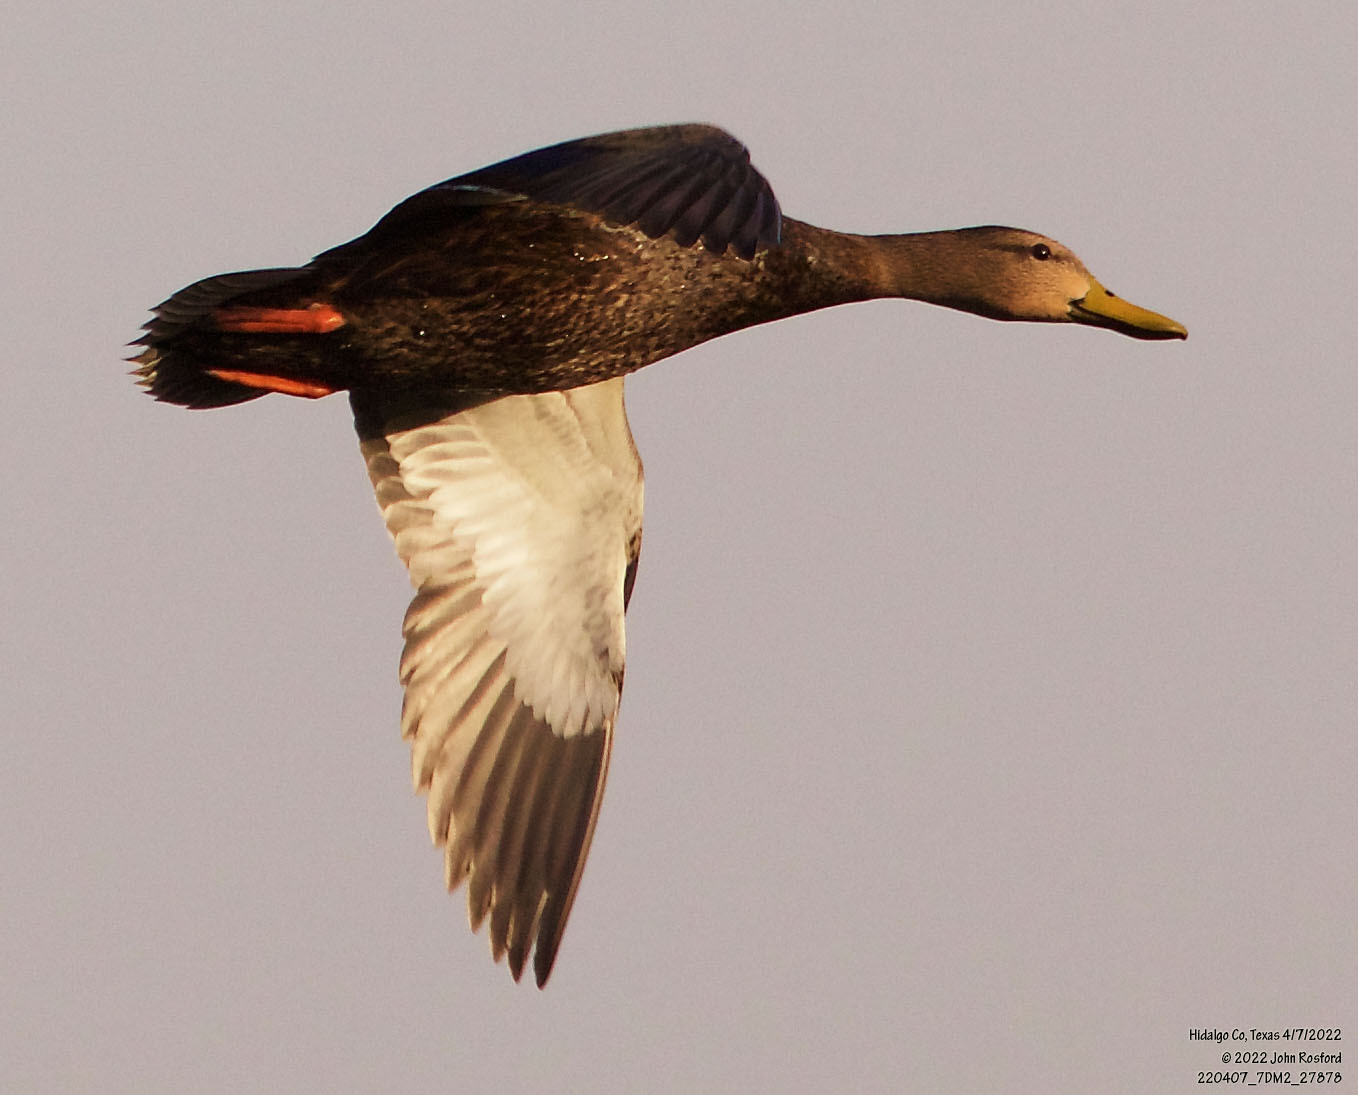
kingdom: Animalia
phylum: Chordata
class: Aves
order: Anseriformes
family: Anatidae
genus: Anas
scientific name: Anas fulvigula
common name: Mottled duck
